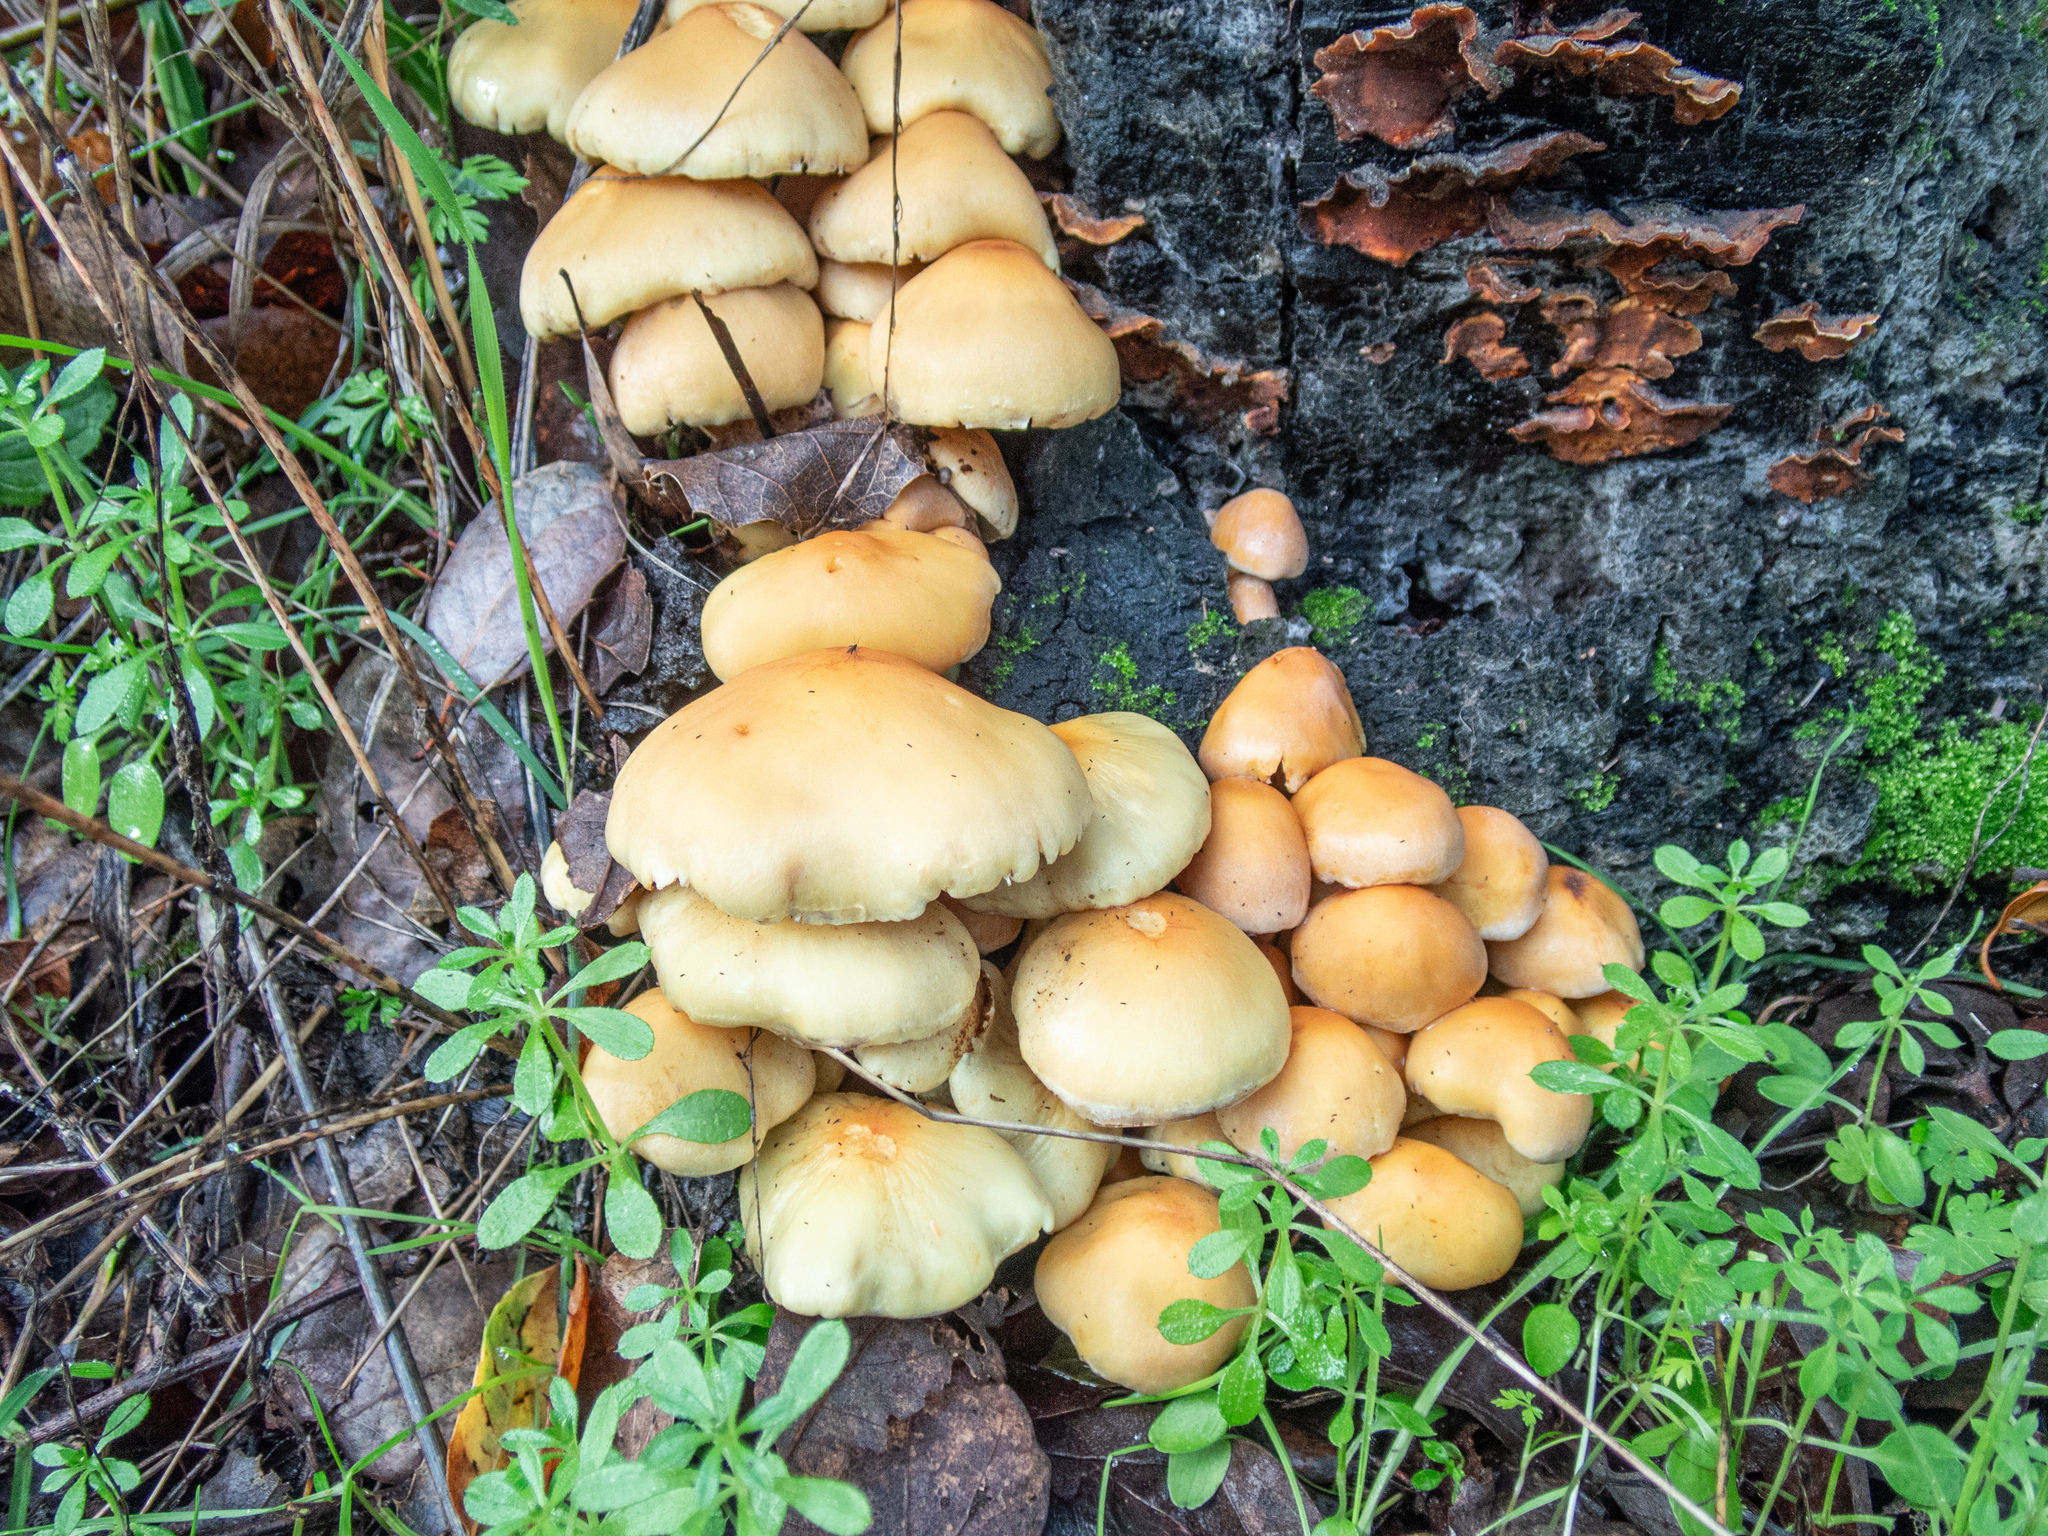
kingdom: Fungi
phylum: Basidiomycota
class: Agaricomycetes
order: Agaricales
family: Strophariaceae
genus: Hypholoma
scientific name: Hypholoma fasciculare
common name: Sulphur tuft
